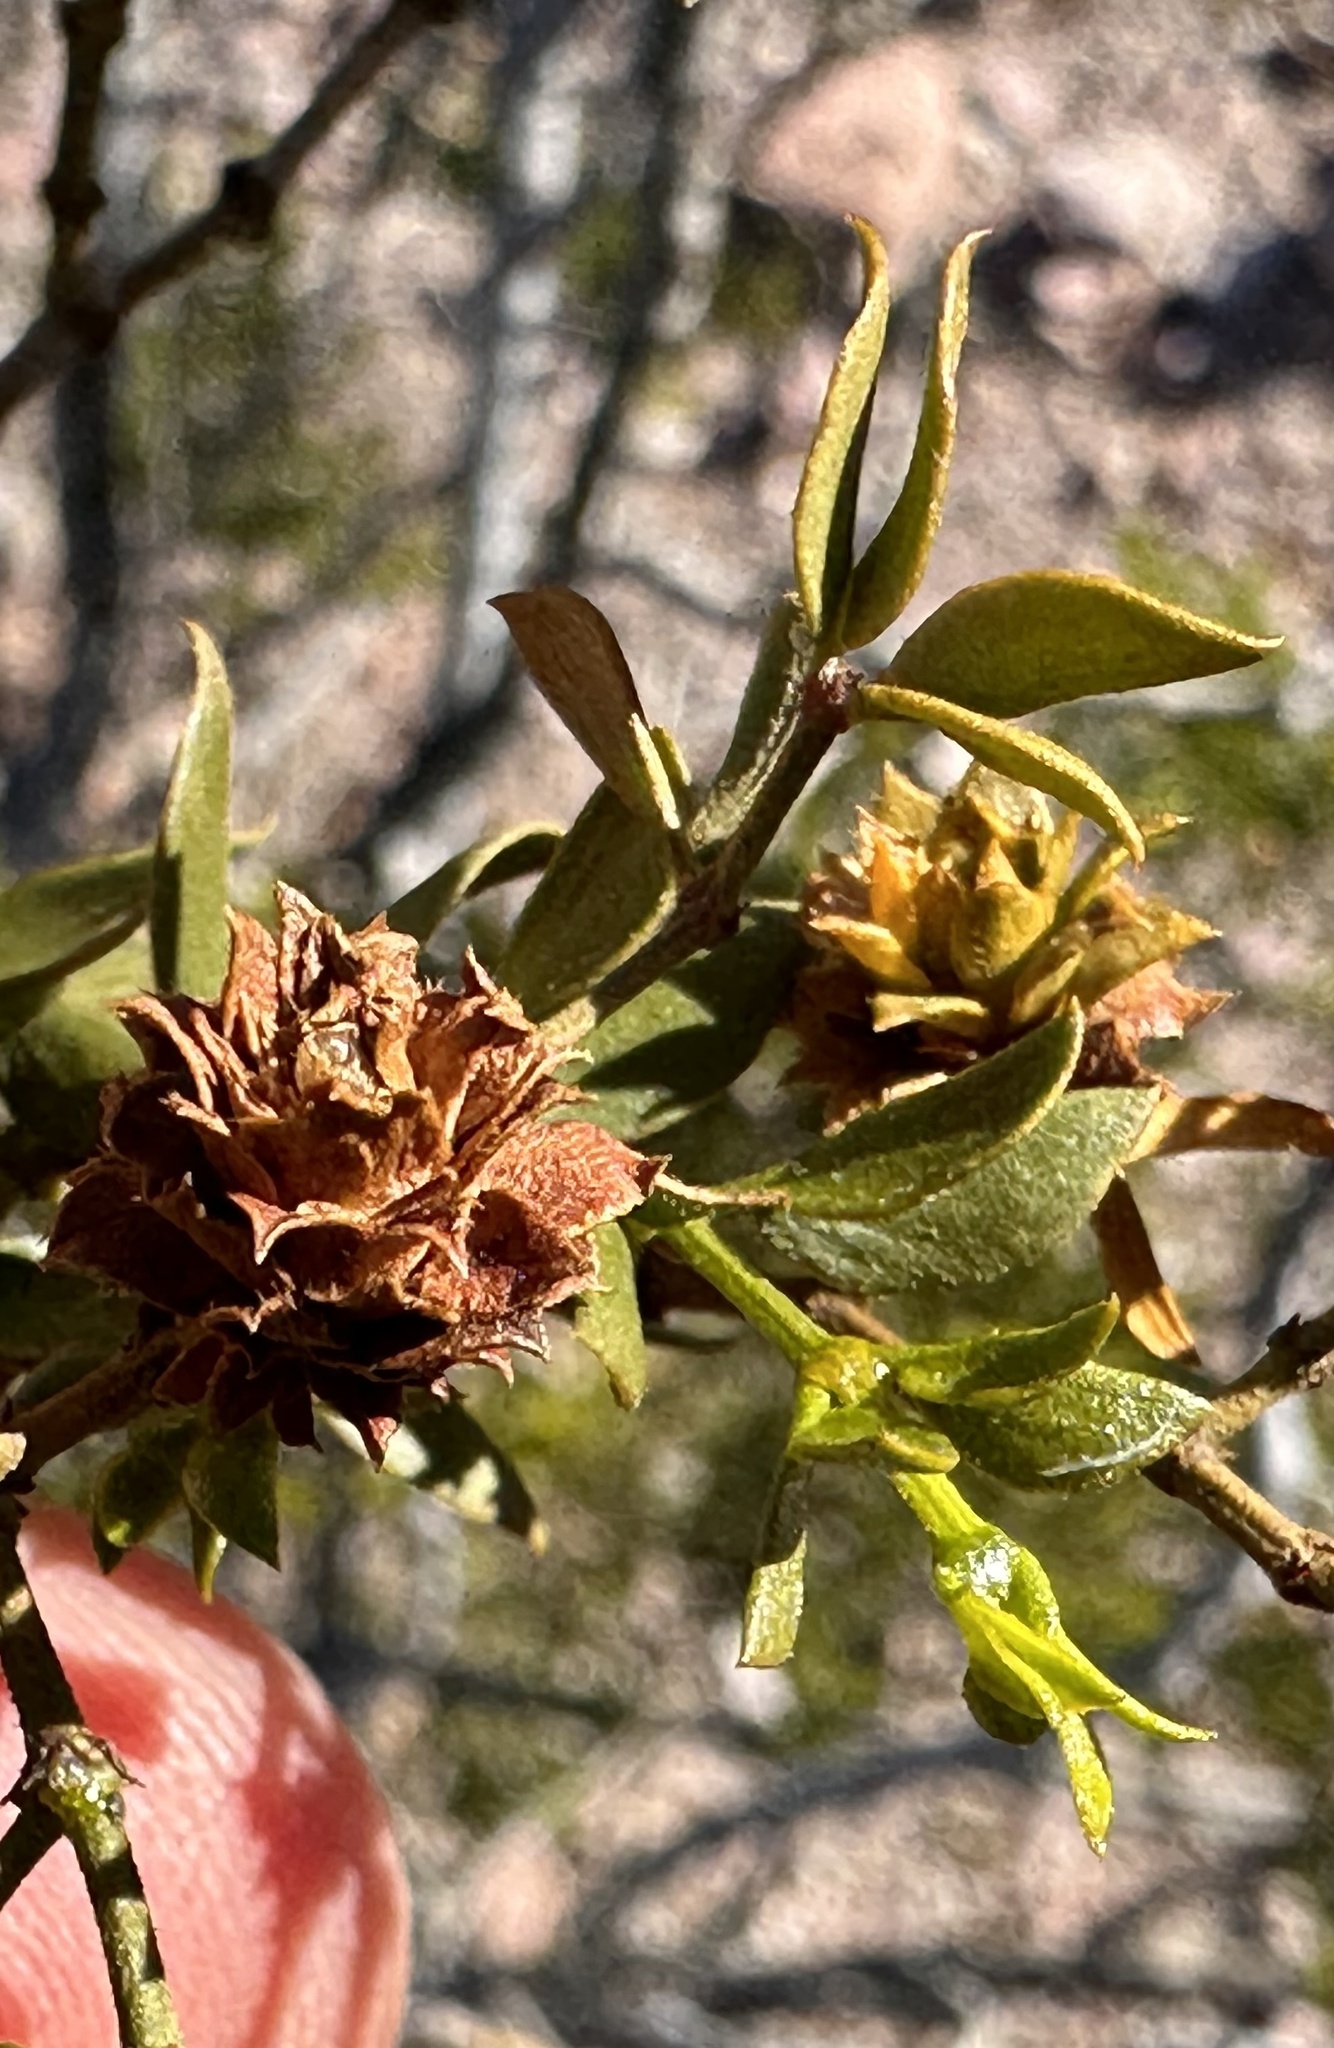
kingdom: Animalia
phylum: Arthropoda
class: Insecta
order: Diptera
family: Cecidomyiidae
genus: Asphondylia
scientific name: Asphondylia rosetta
